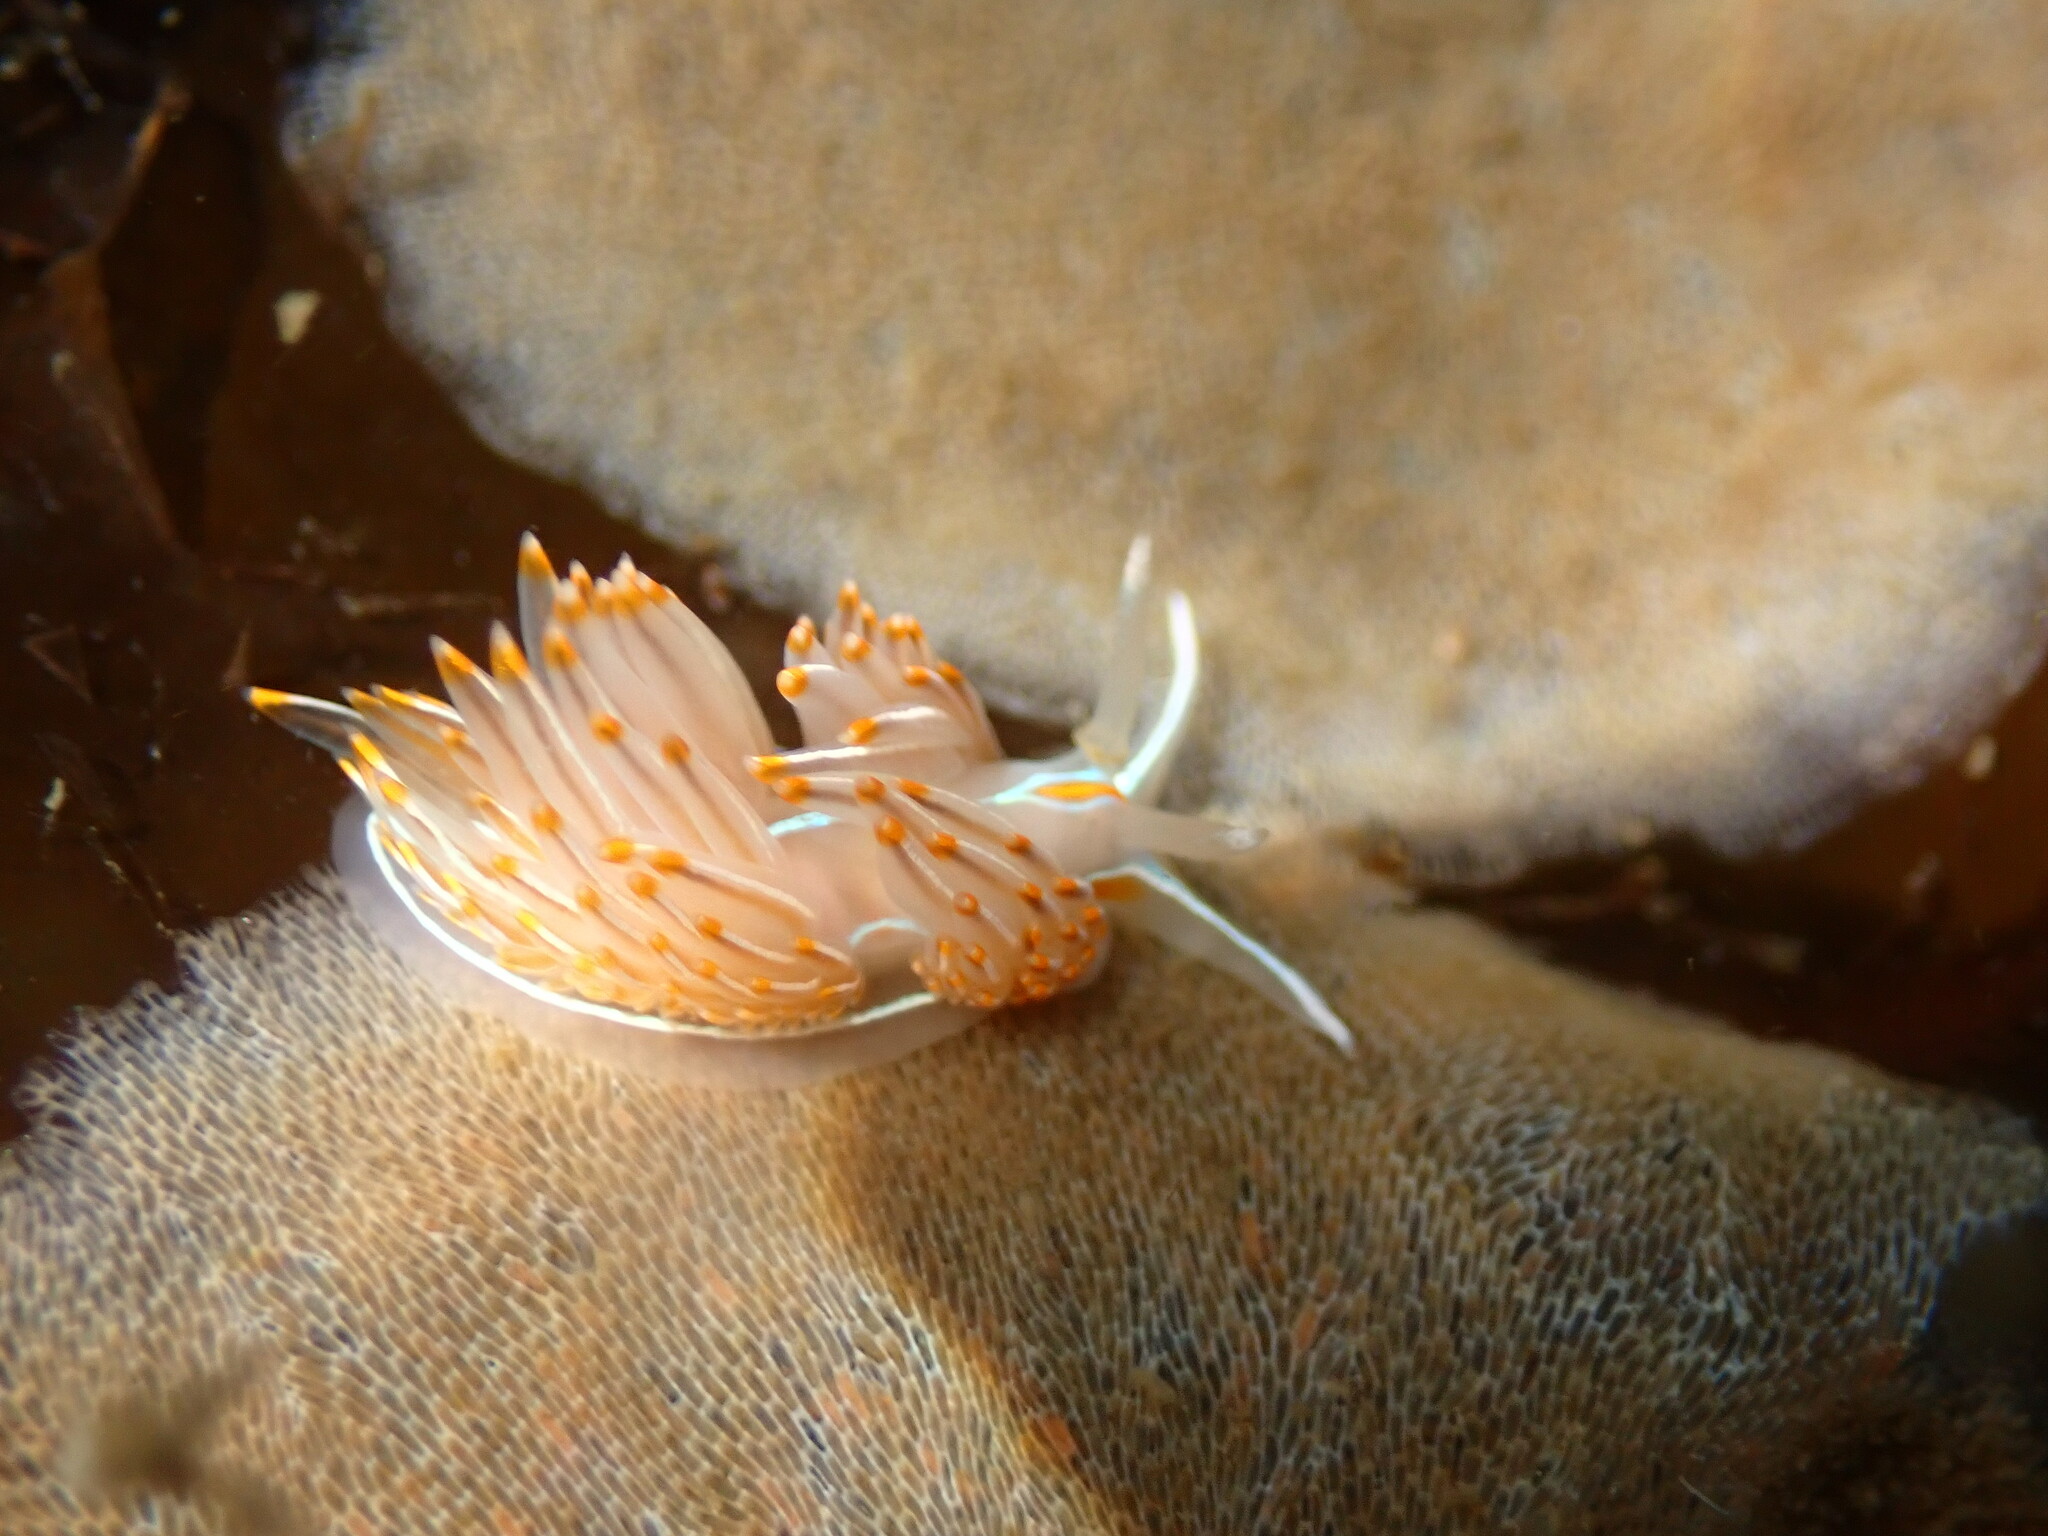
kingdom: Animalia
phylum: Mollusca
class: Gastropoda
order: Nudibranchia
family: Myrrhinidae
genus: Hermissenda
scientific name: Hermissenda crassicornis
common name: Hermissenda
